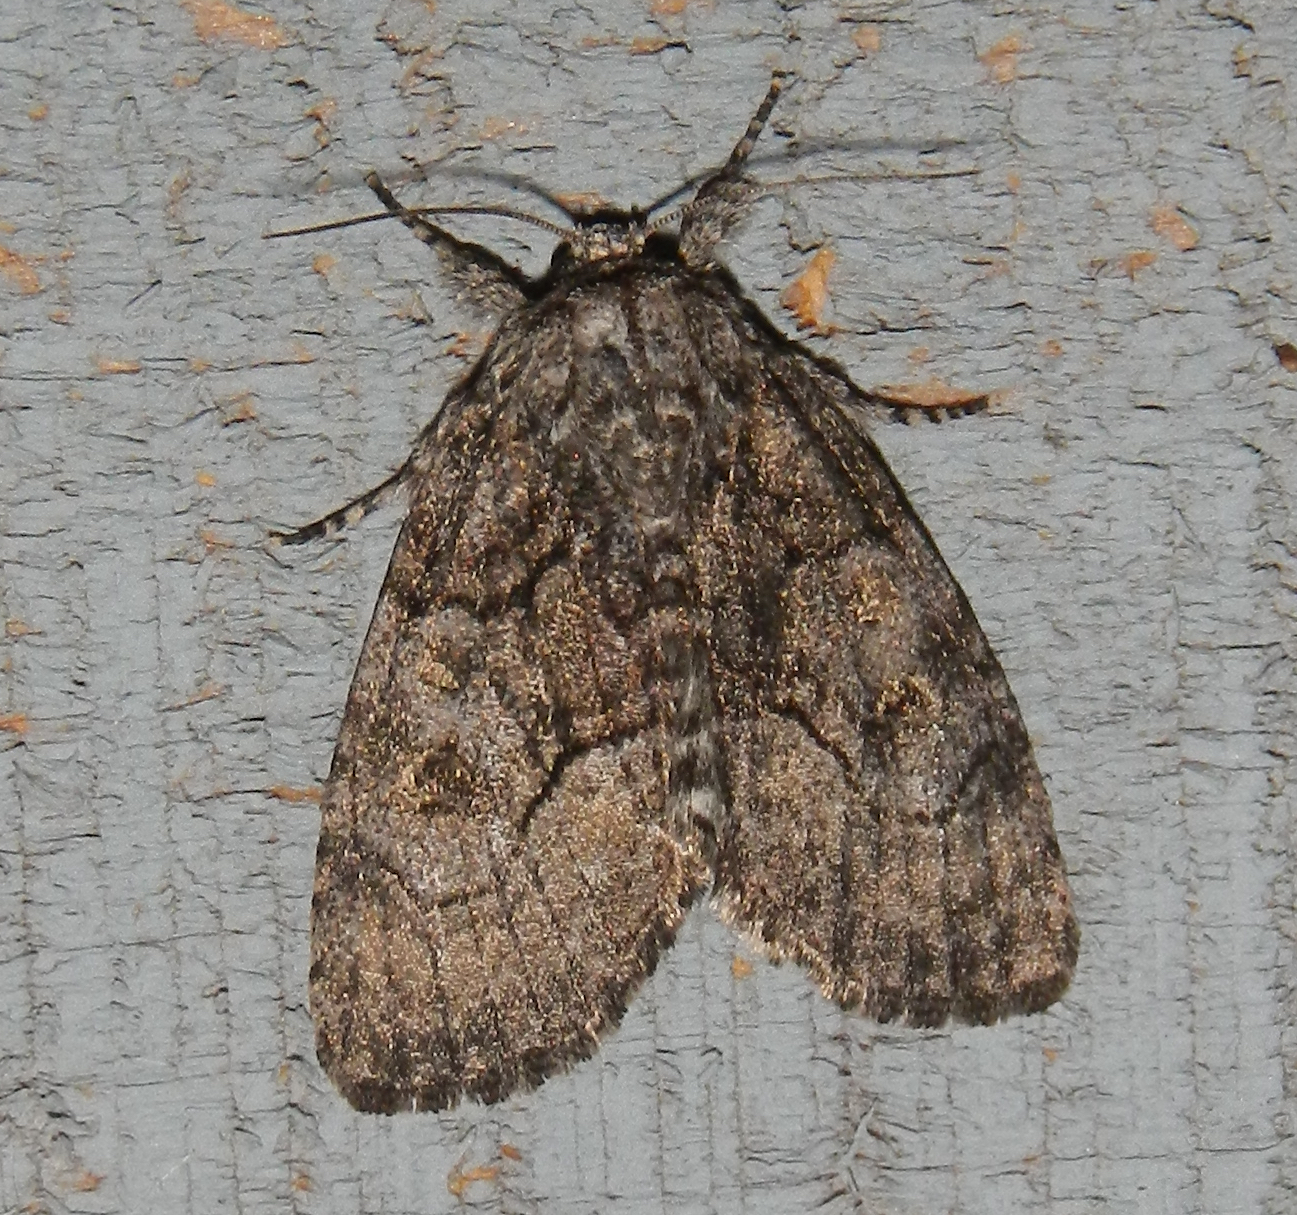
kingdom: Animalia
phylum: Arthropoda
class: Insecta
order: Lepidoptera
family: Noctuidae
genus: Raphia
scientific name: Raphia frater
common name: Brother
